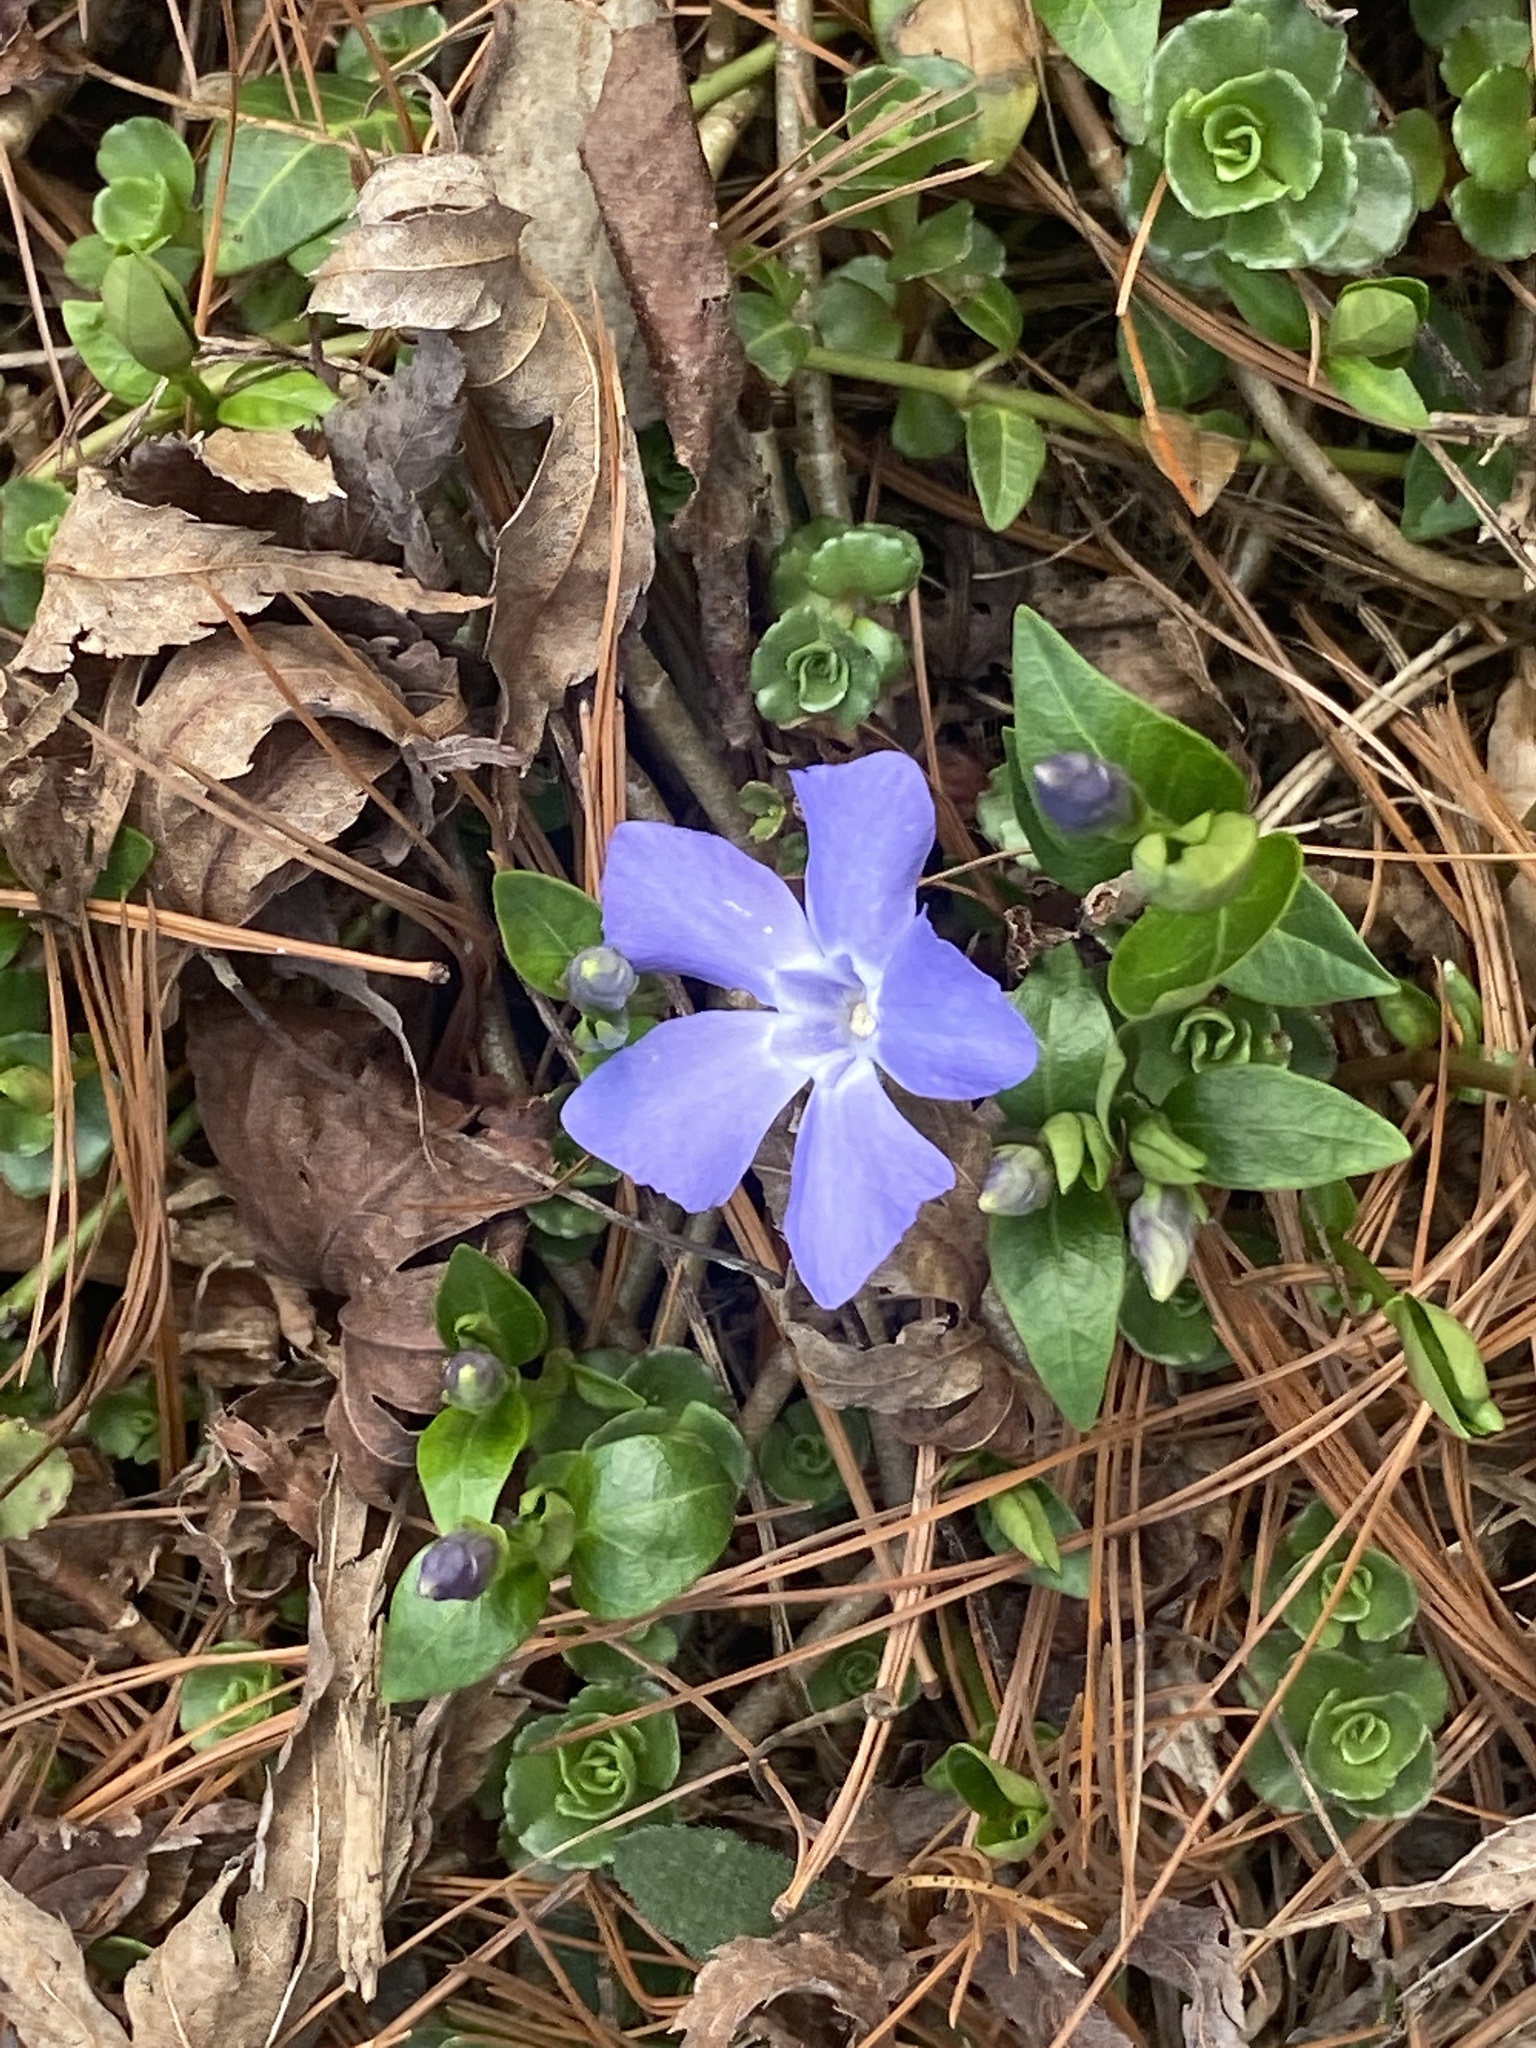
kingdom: Plantae
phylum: Tracheophyta
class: Magnoliopsida
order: Gentianales
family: Apocynaceae
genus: Vinca
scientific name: Vinca minor
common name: Lesser periwinkle
